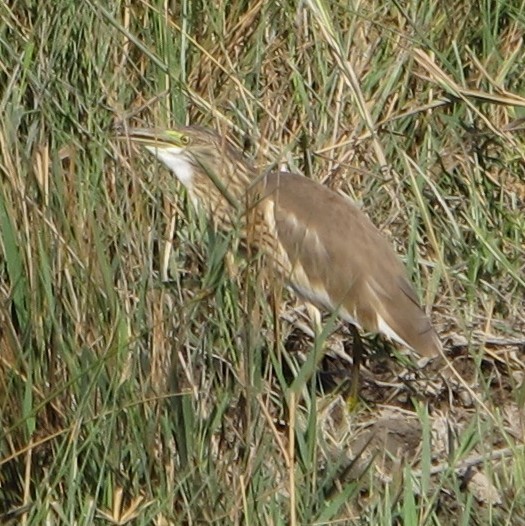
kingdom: Animalia
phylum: Chordata
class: Aves
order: Pelecaniformes
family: Ardeidae
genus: Ardeola
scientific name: Ardeola ralloides
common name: Squacco heron
